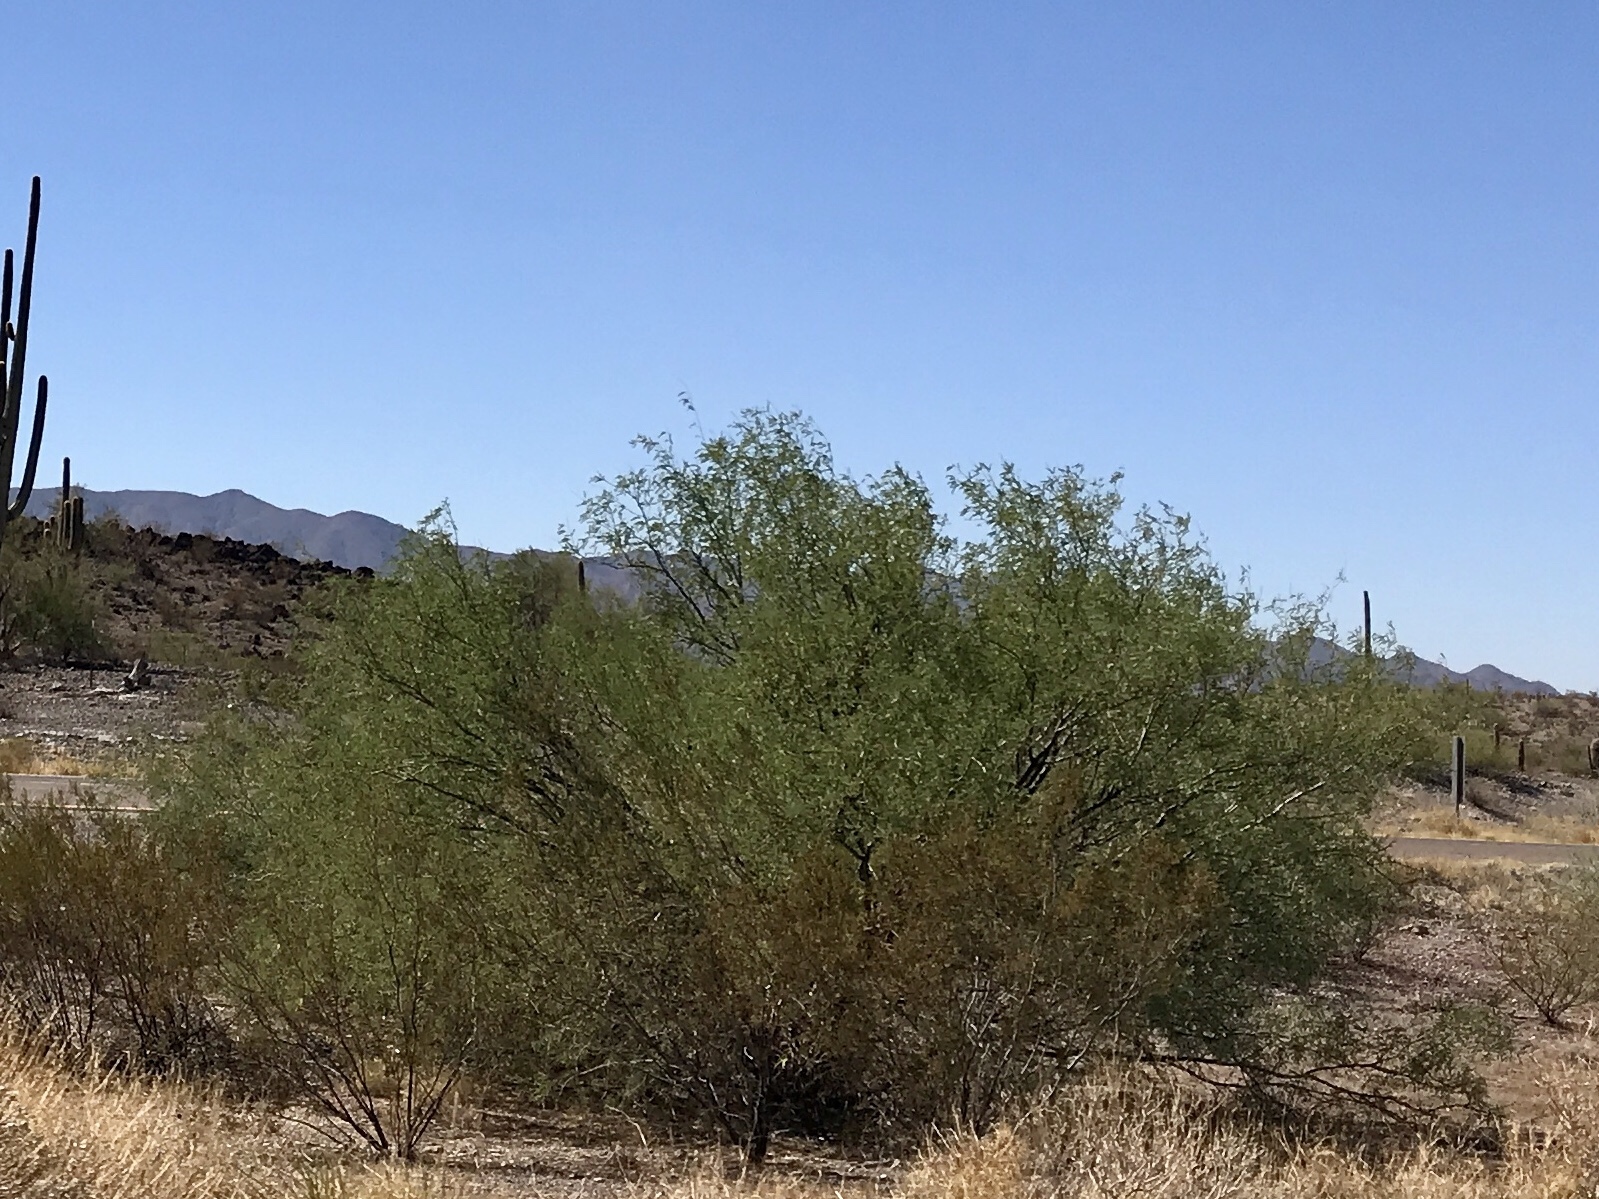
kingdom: Plantae
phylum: Tracheophyta
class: Magnoliopsida
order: Fabales
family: Fabaceae
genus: Prosopis
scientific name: Prosopis velutina
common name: Velvet mesquite
